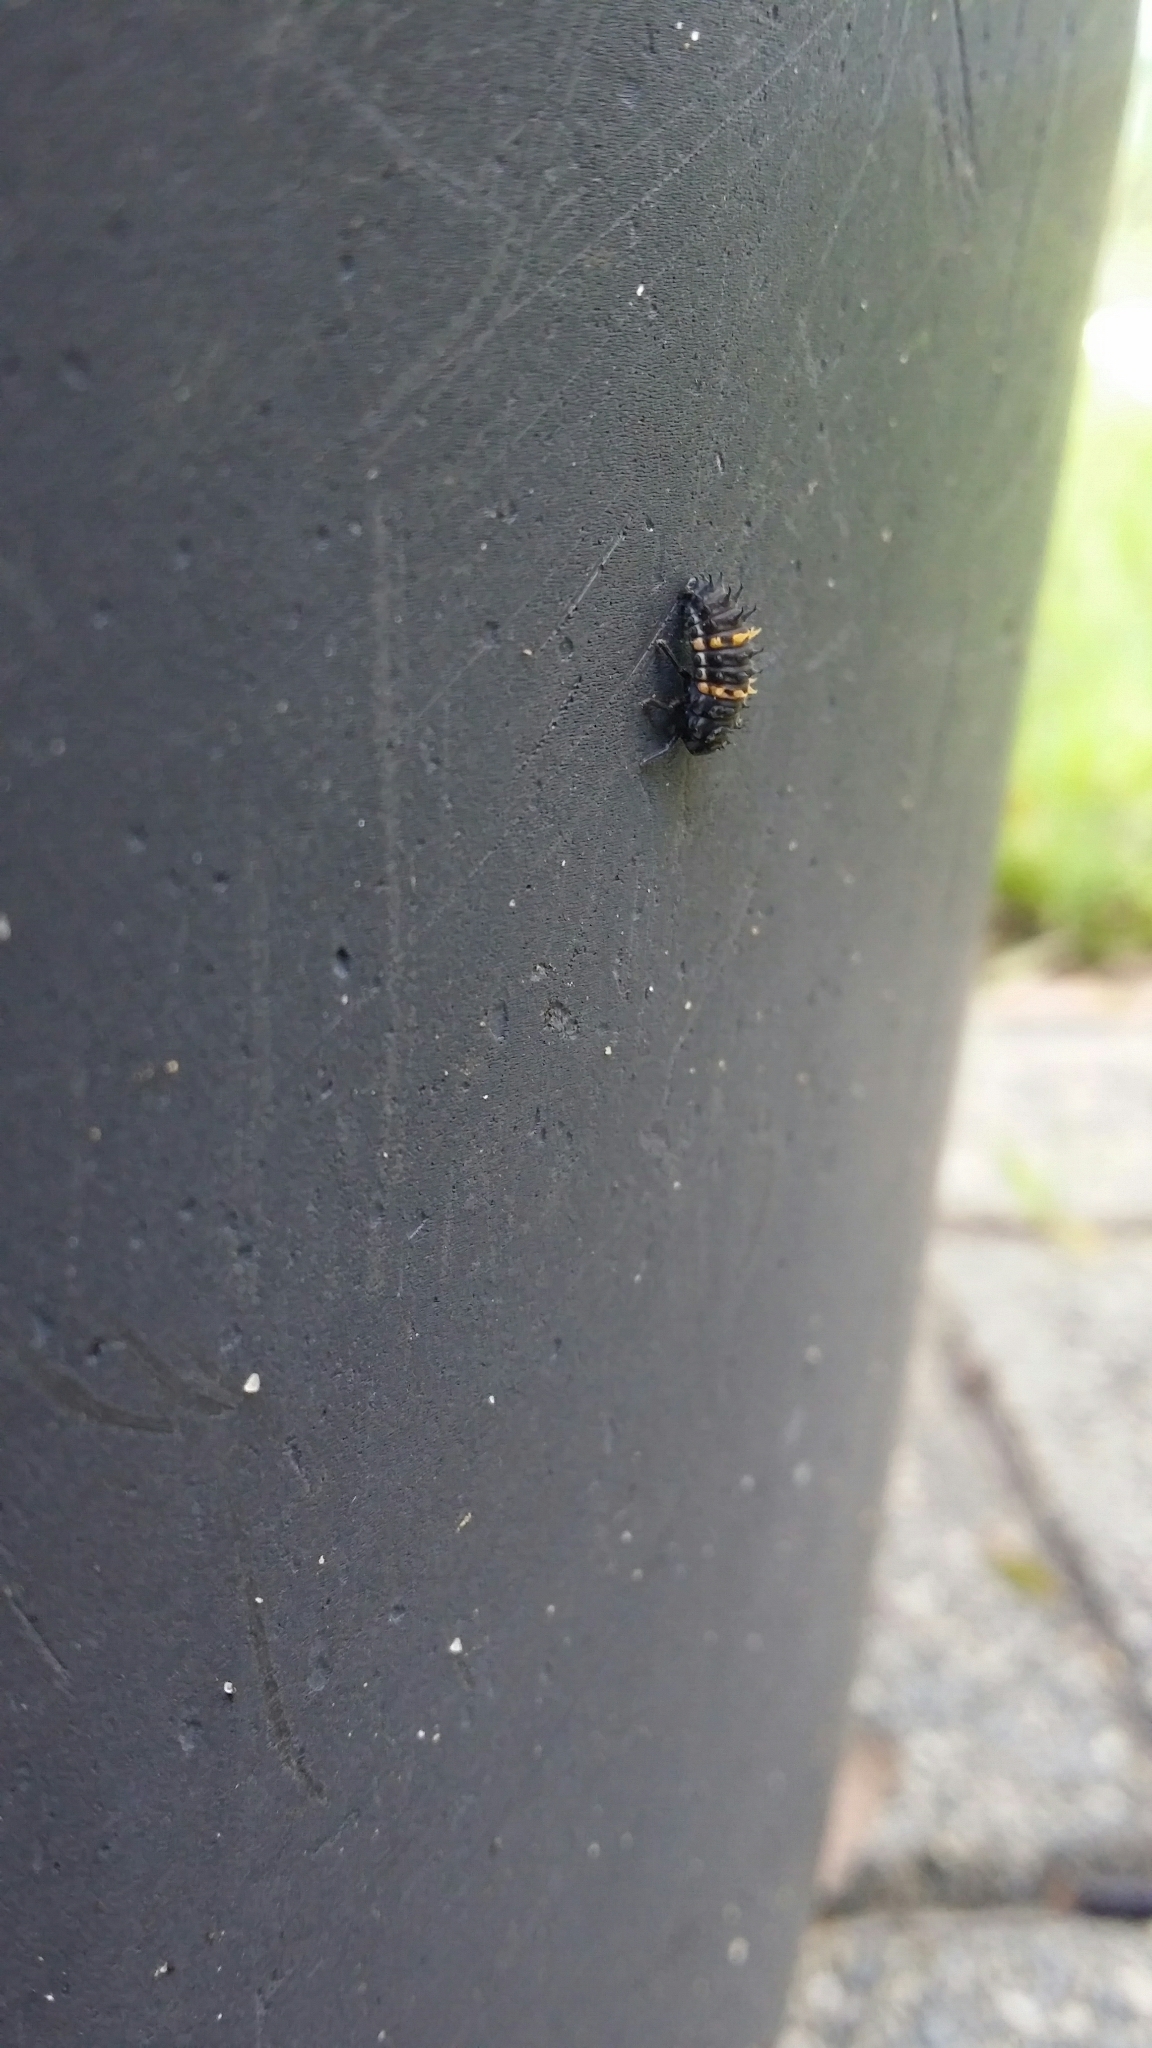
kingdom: Animalia
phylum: Arthropoda
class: Insecta
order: Coleoptera
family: Coccinellidae
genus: Harmonia
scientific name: Harmonia conformis
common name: Common spotted ladybird beetle
